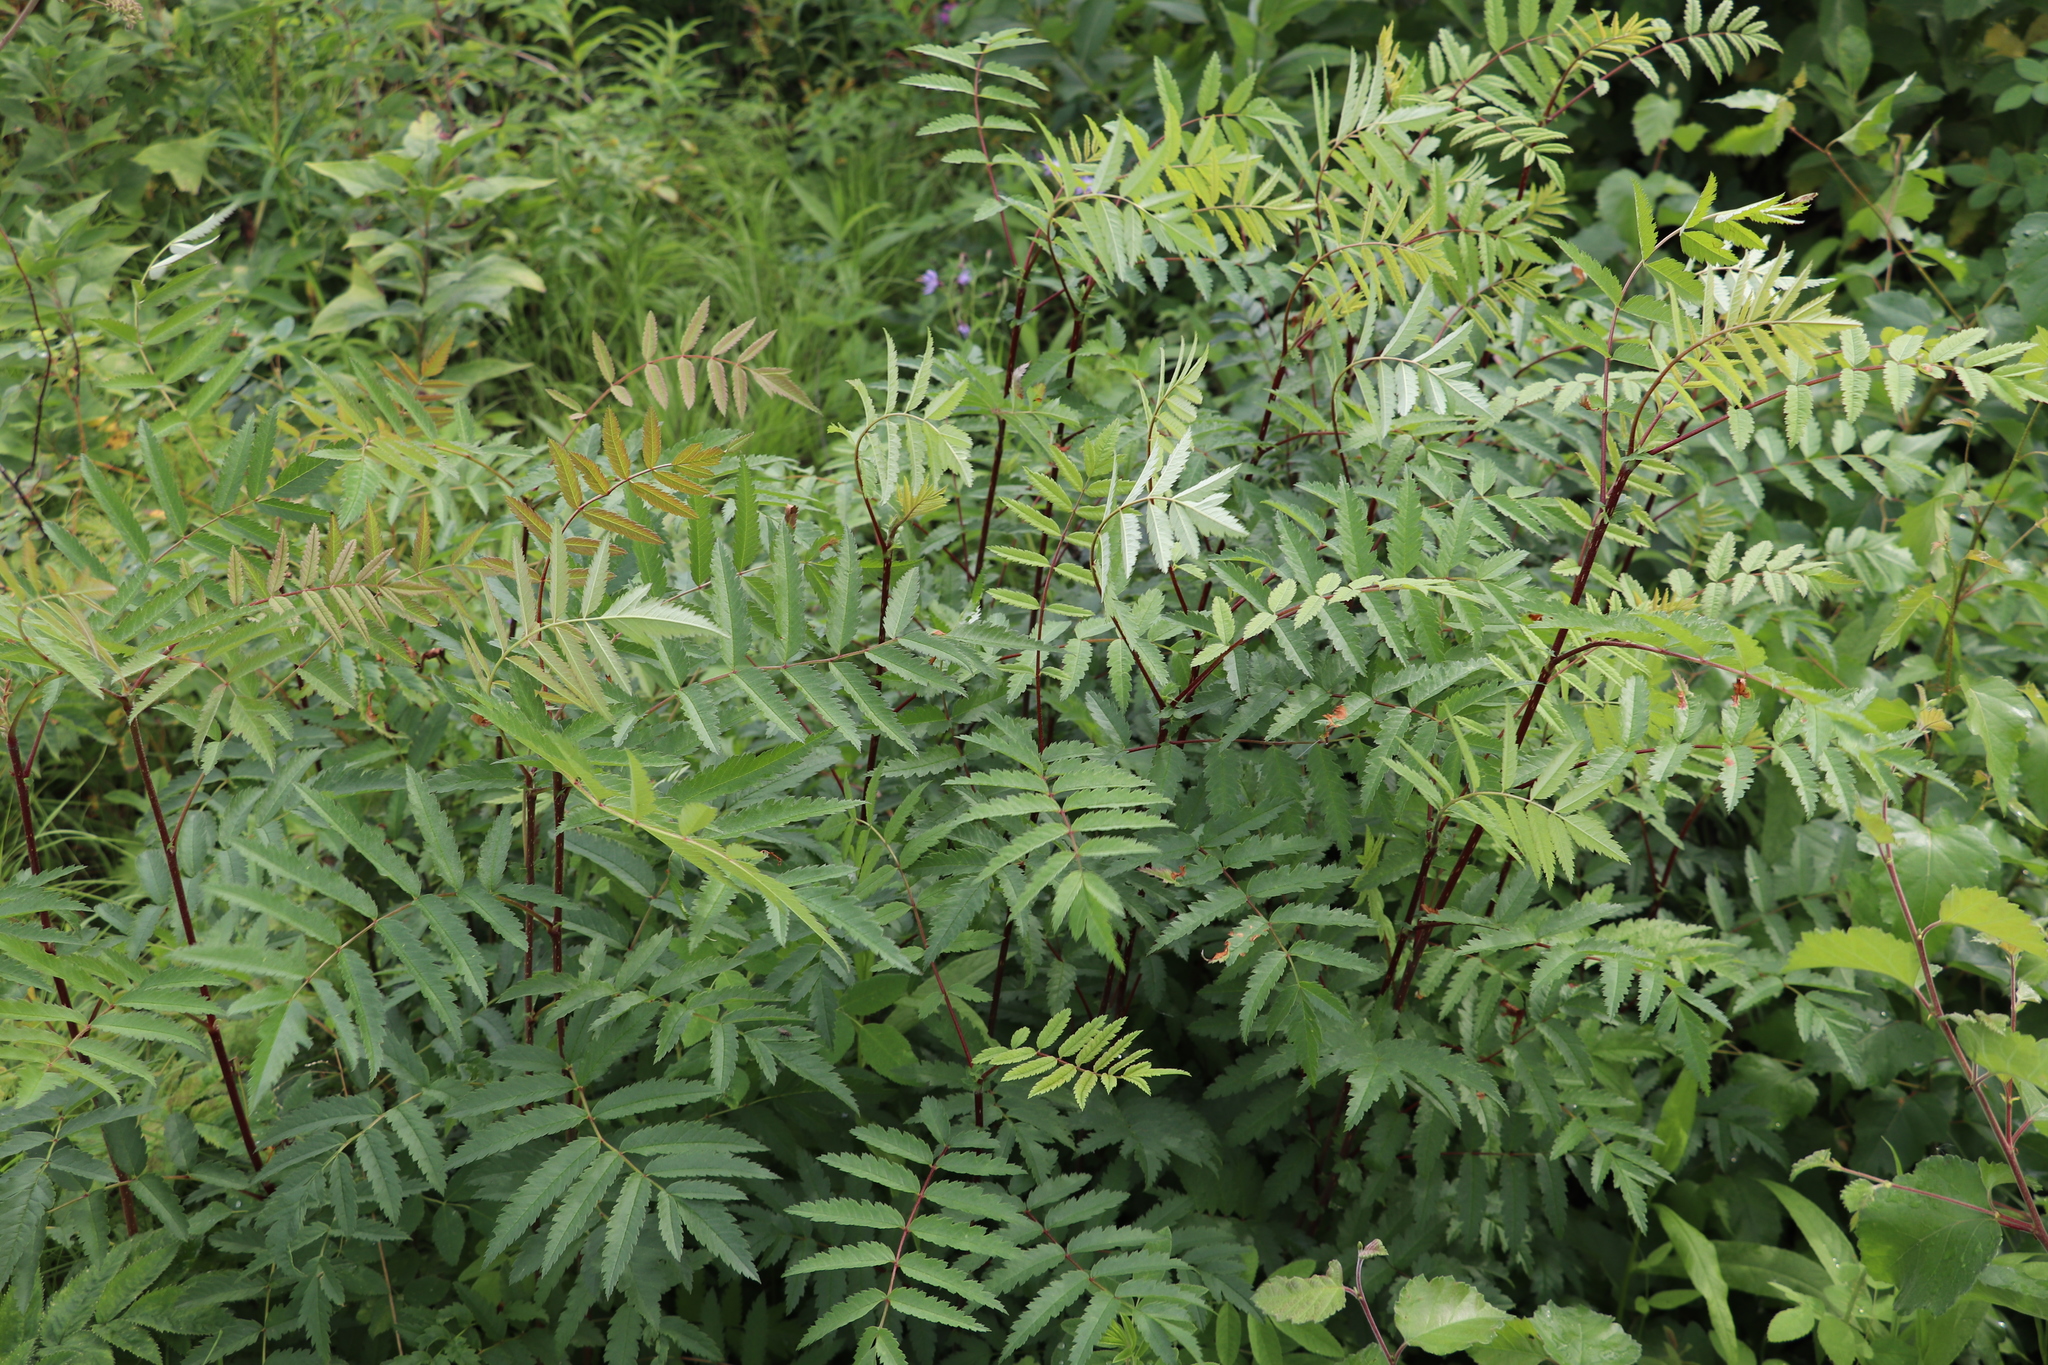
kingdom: Plantae
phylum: Tracheophyta
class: Magnoliopsida
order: Rosales
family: Rosaceae
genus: Sorbus
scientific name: Sorbus aucuparia
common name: Rowan
